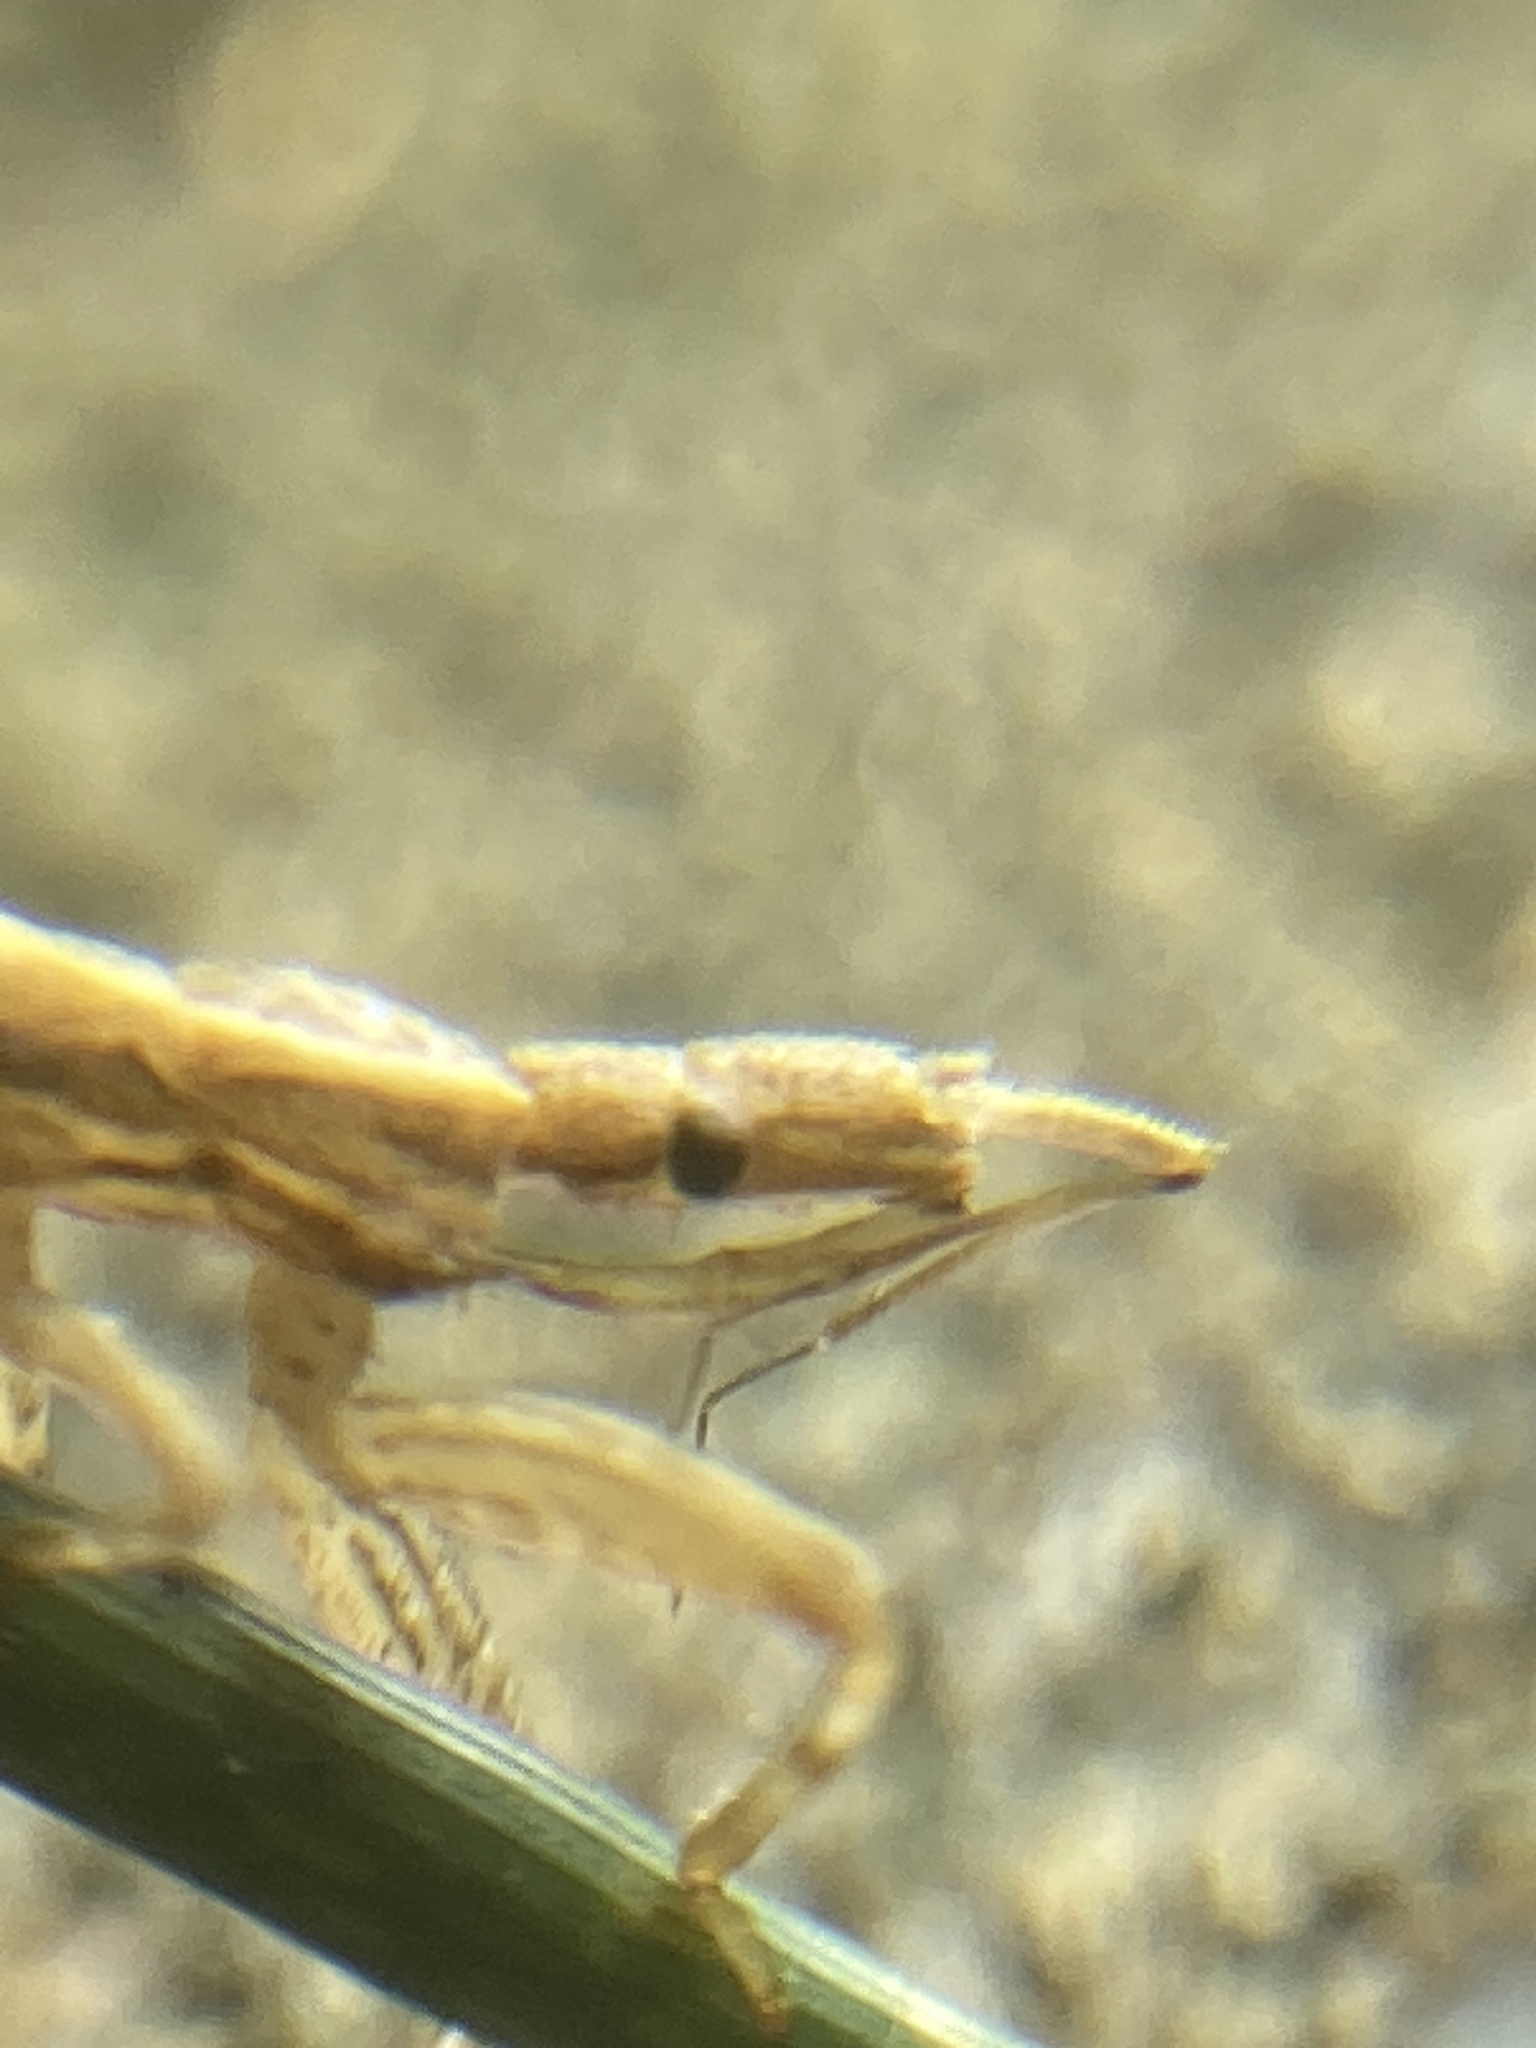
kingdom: Animalia
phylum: Arthropoda
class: Insecta
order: Hemiptera
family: Reduviidae
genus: Sastrapada
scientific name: Sastrapada australica
